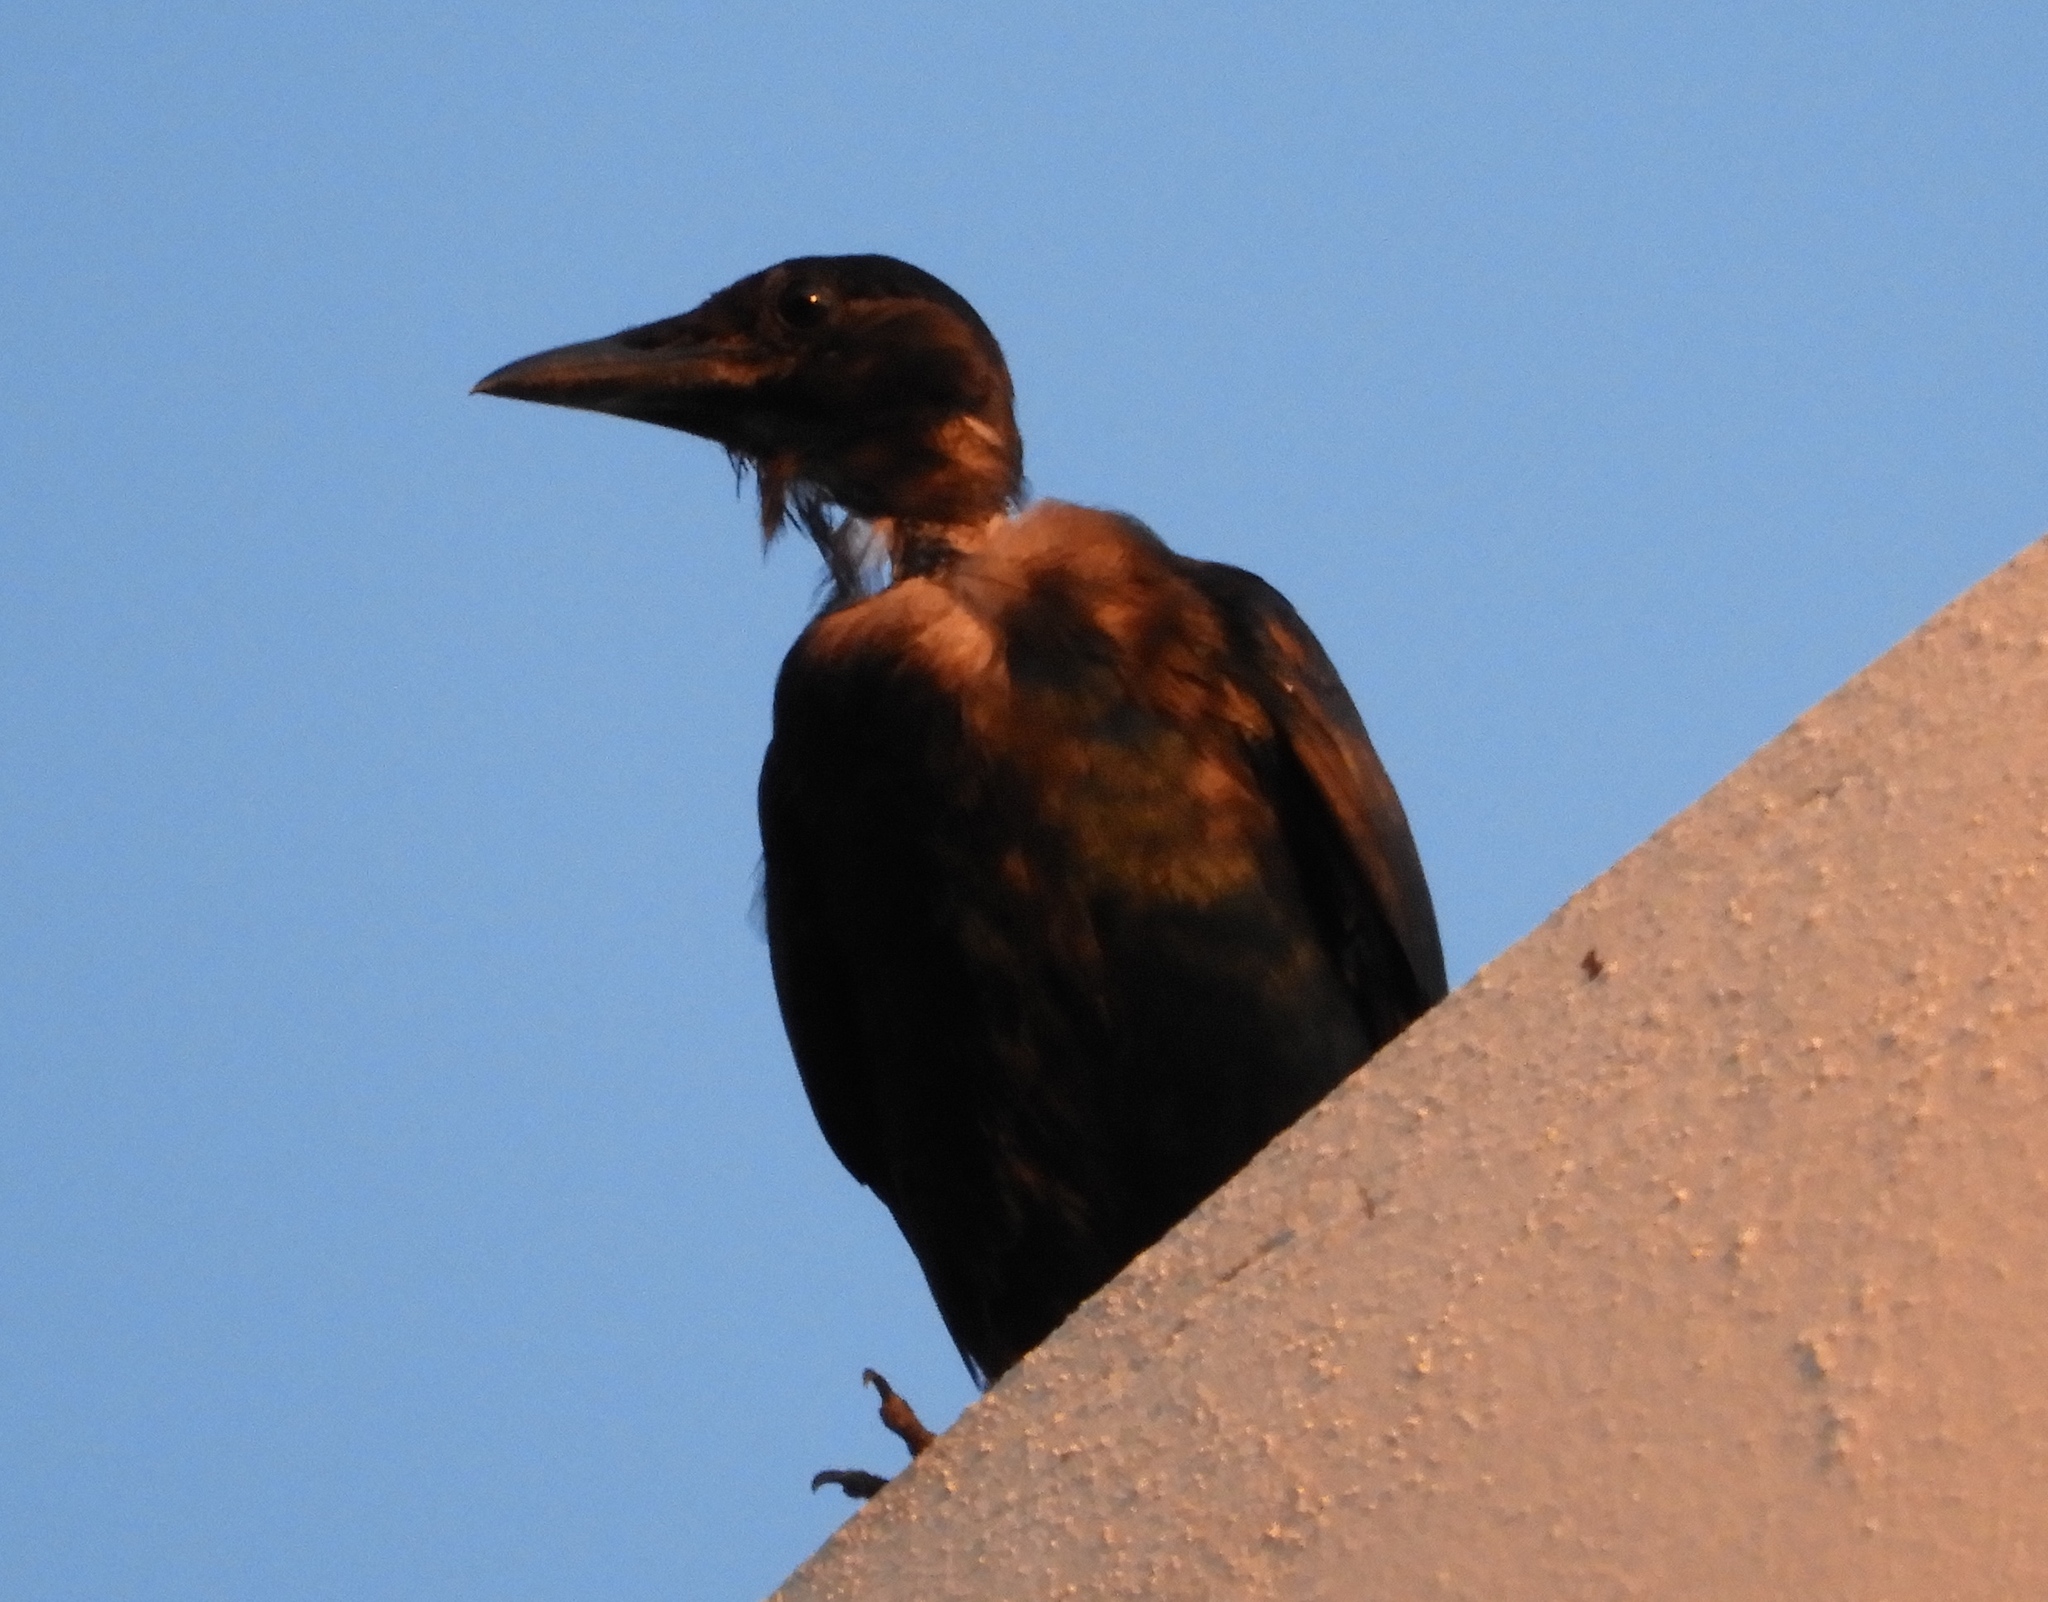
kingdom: Animalia
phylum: Chordata
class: Aves
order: Passeriformes
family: Corvidae
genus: Corvus
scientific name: Corvus sinaloae
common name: Sinaloa crow
